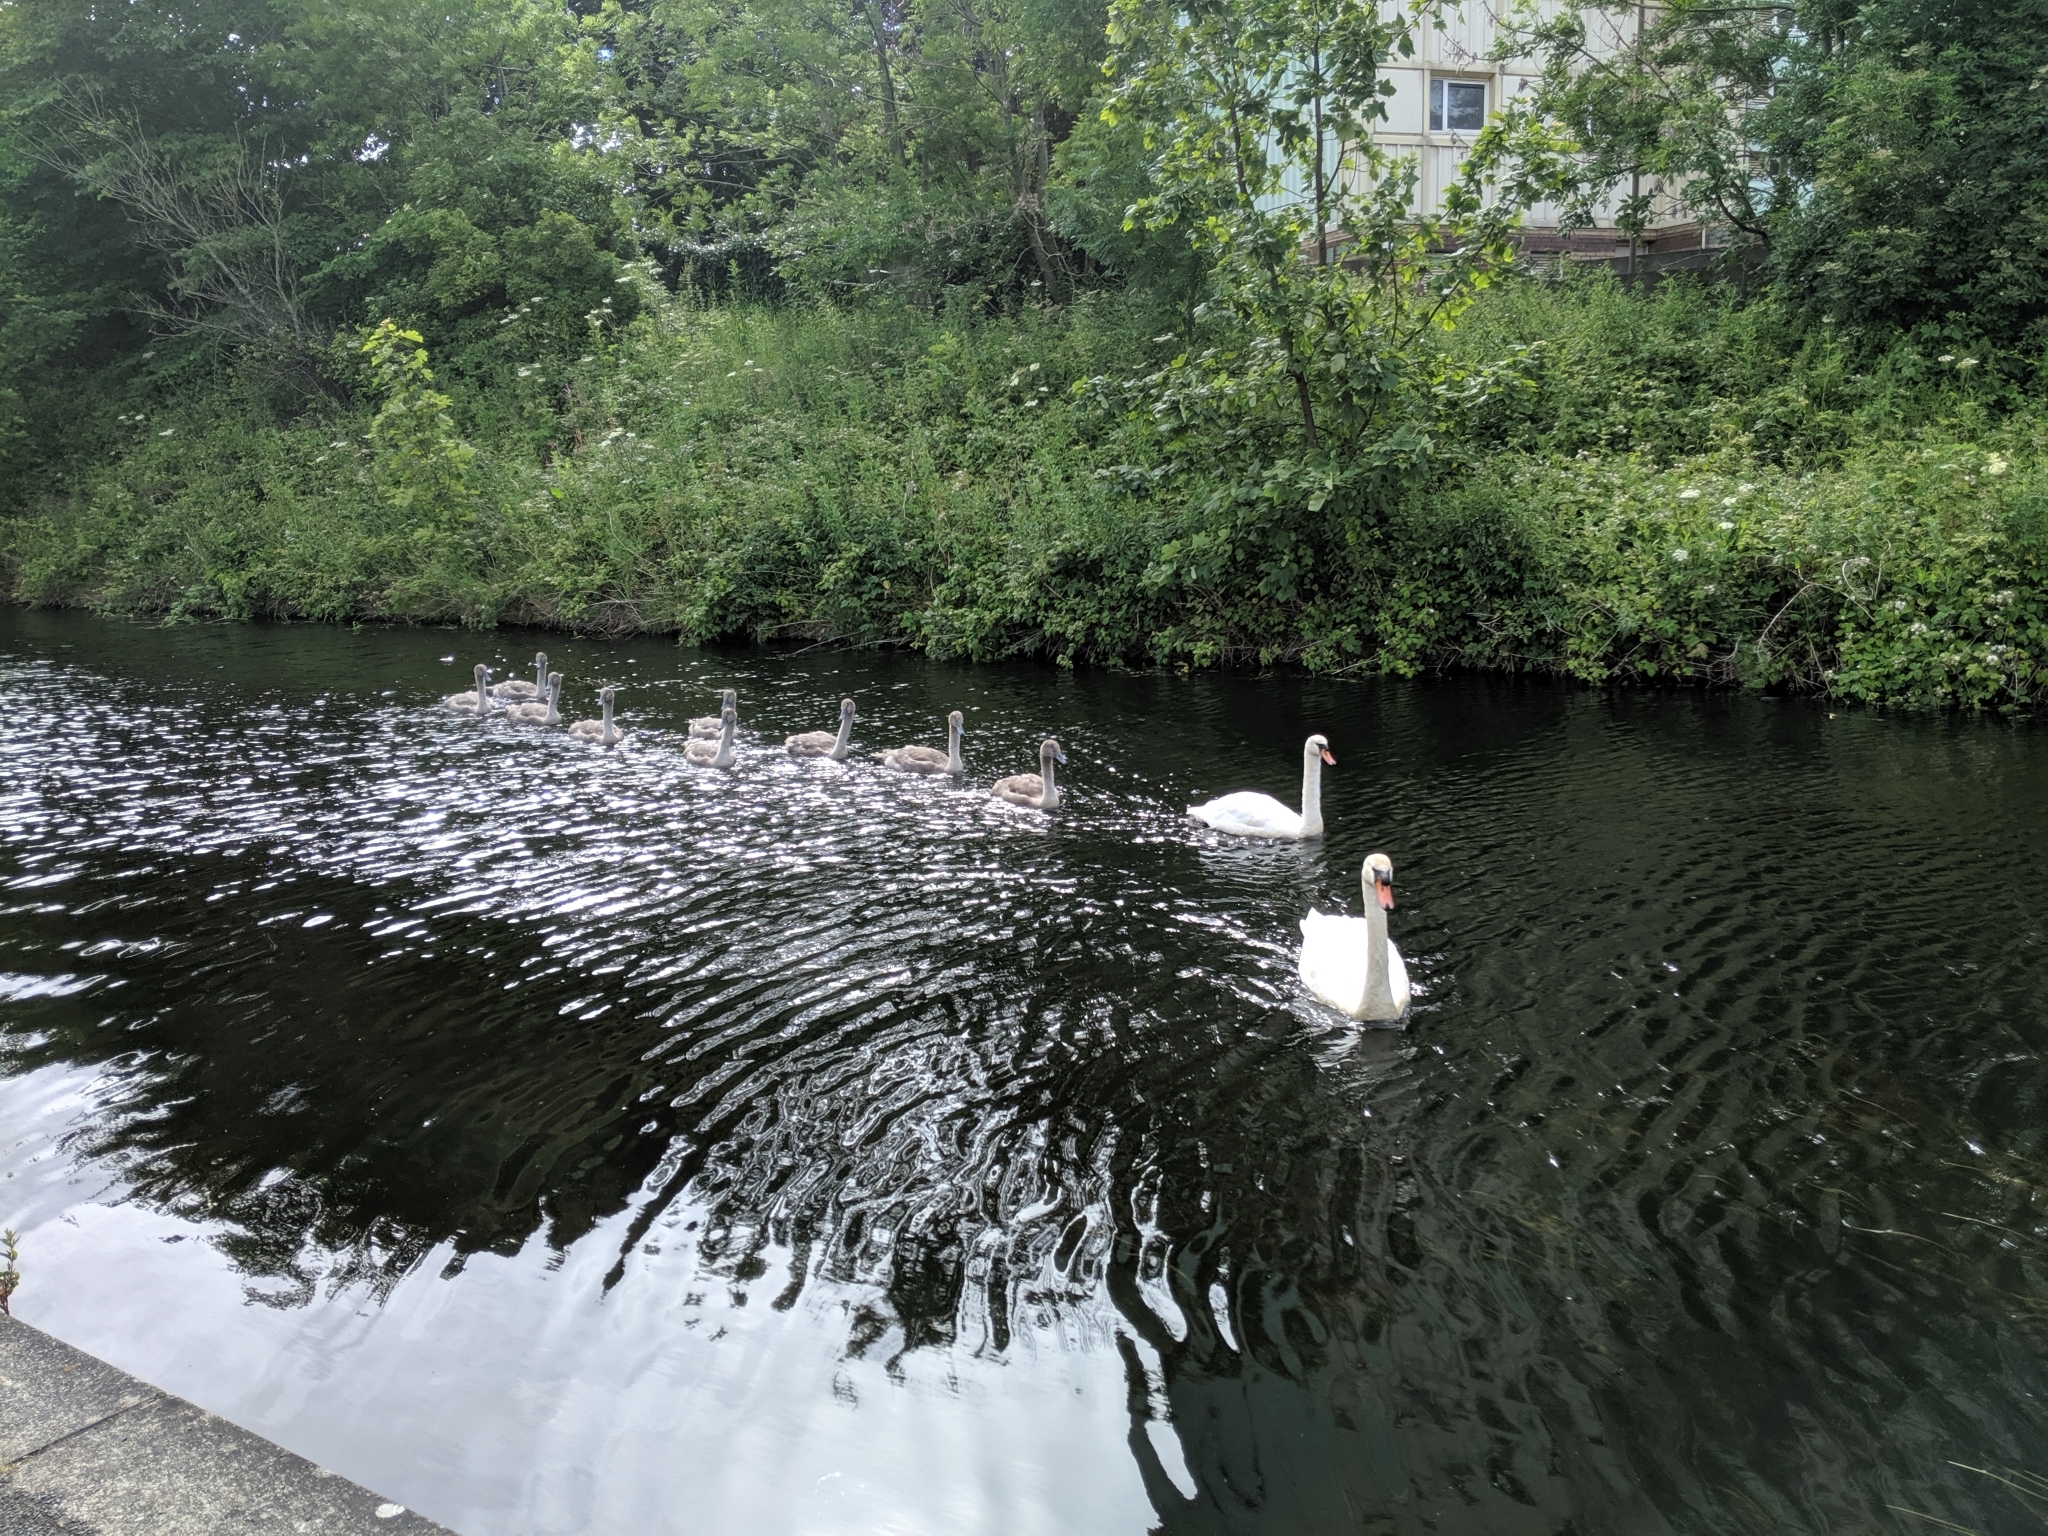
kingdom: Animalia
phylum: Chordata
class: Aves
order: Anseriformes
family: Anatidae
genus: Cygnus
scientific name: Cygnus olor
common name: Mute swan
